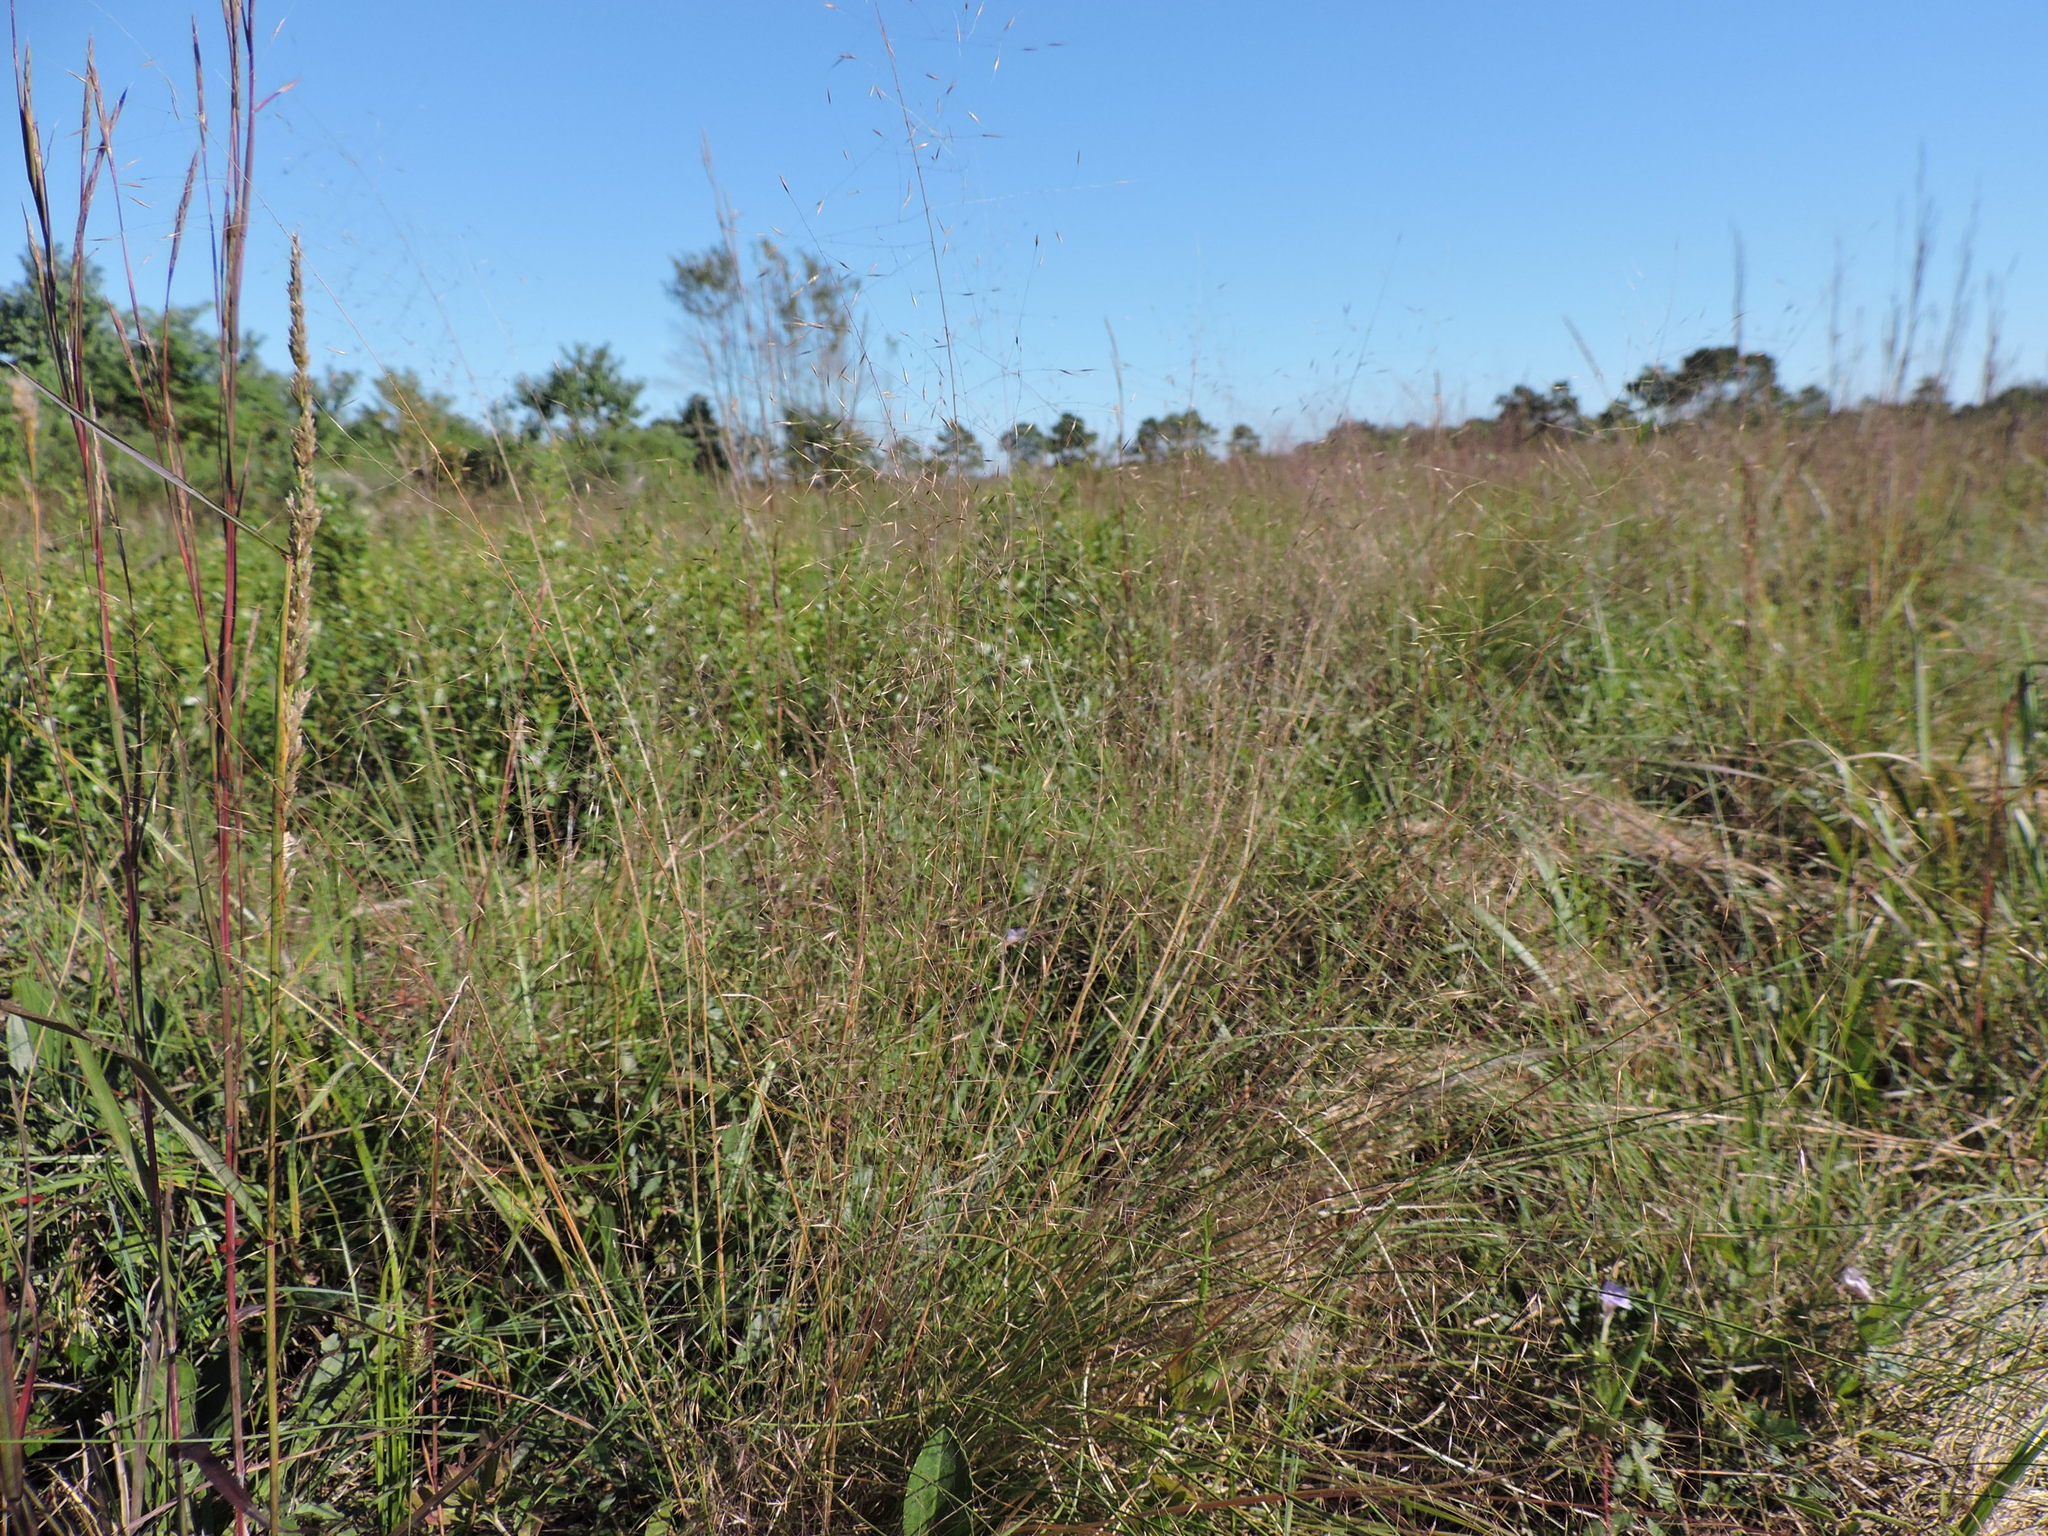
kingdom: Plantae
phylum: Tracheophyta
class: Liliopsida
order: Poales
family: Poaceae
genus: Muhlenbergia
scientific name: Muhlenbergia capillaris
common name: Purple grass
